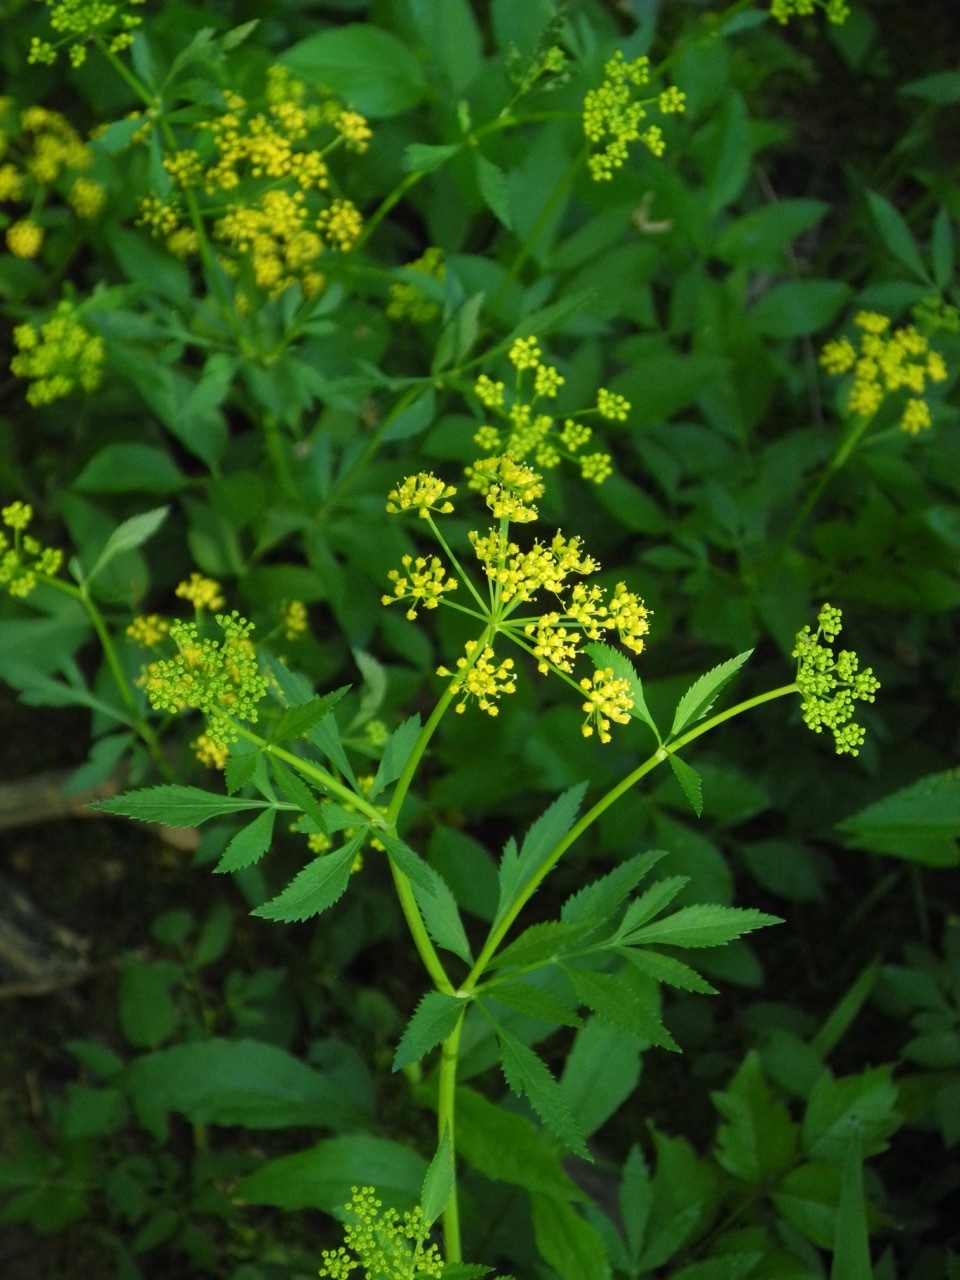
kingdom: Plantae
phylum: Tracheophyta
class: Magnoliopsida
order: Apiales
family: Apiaceae
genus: Zizia
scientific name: Zizia aurea
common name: Golden alexanders
